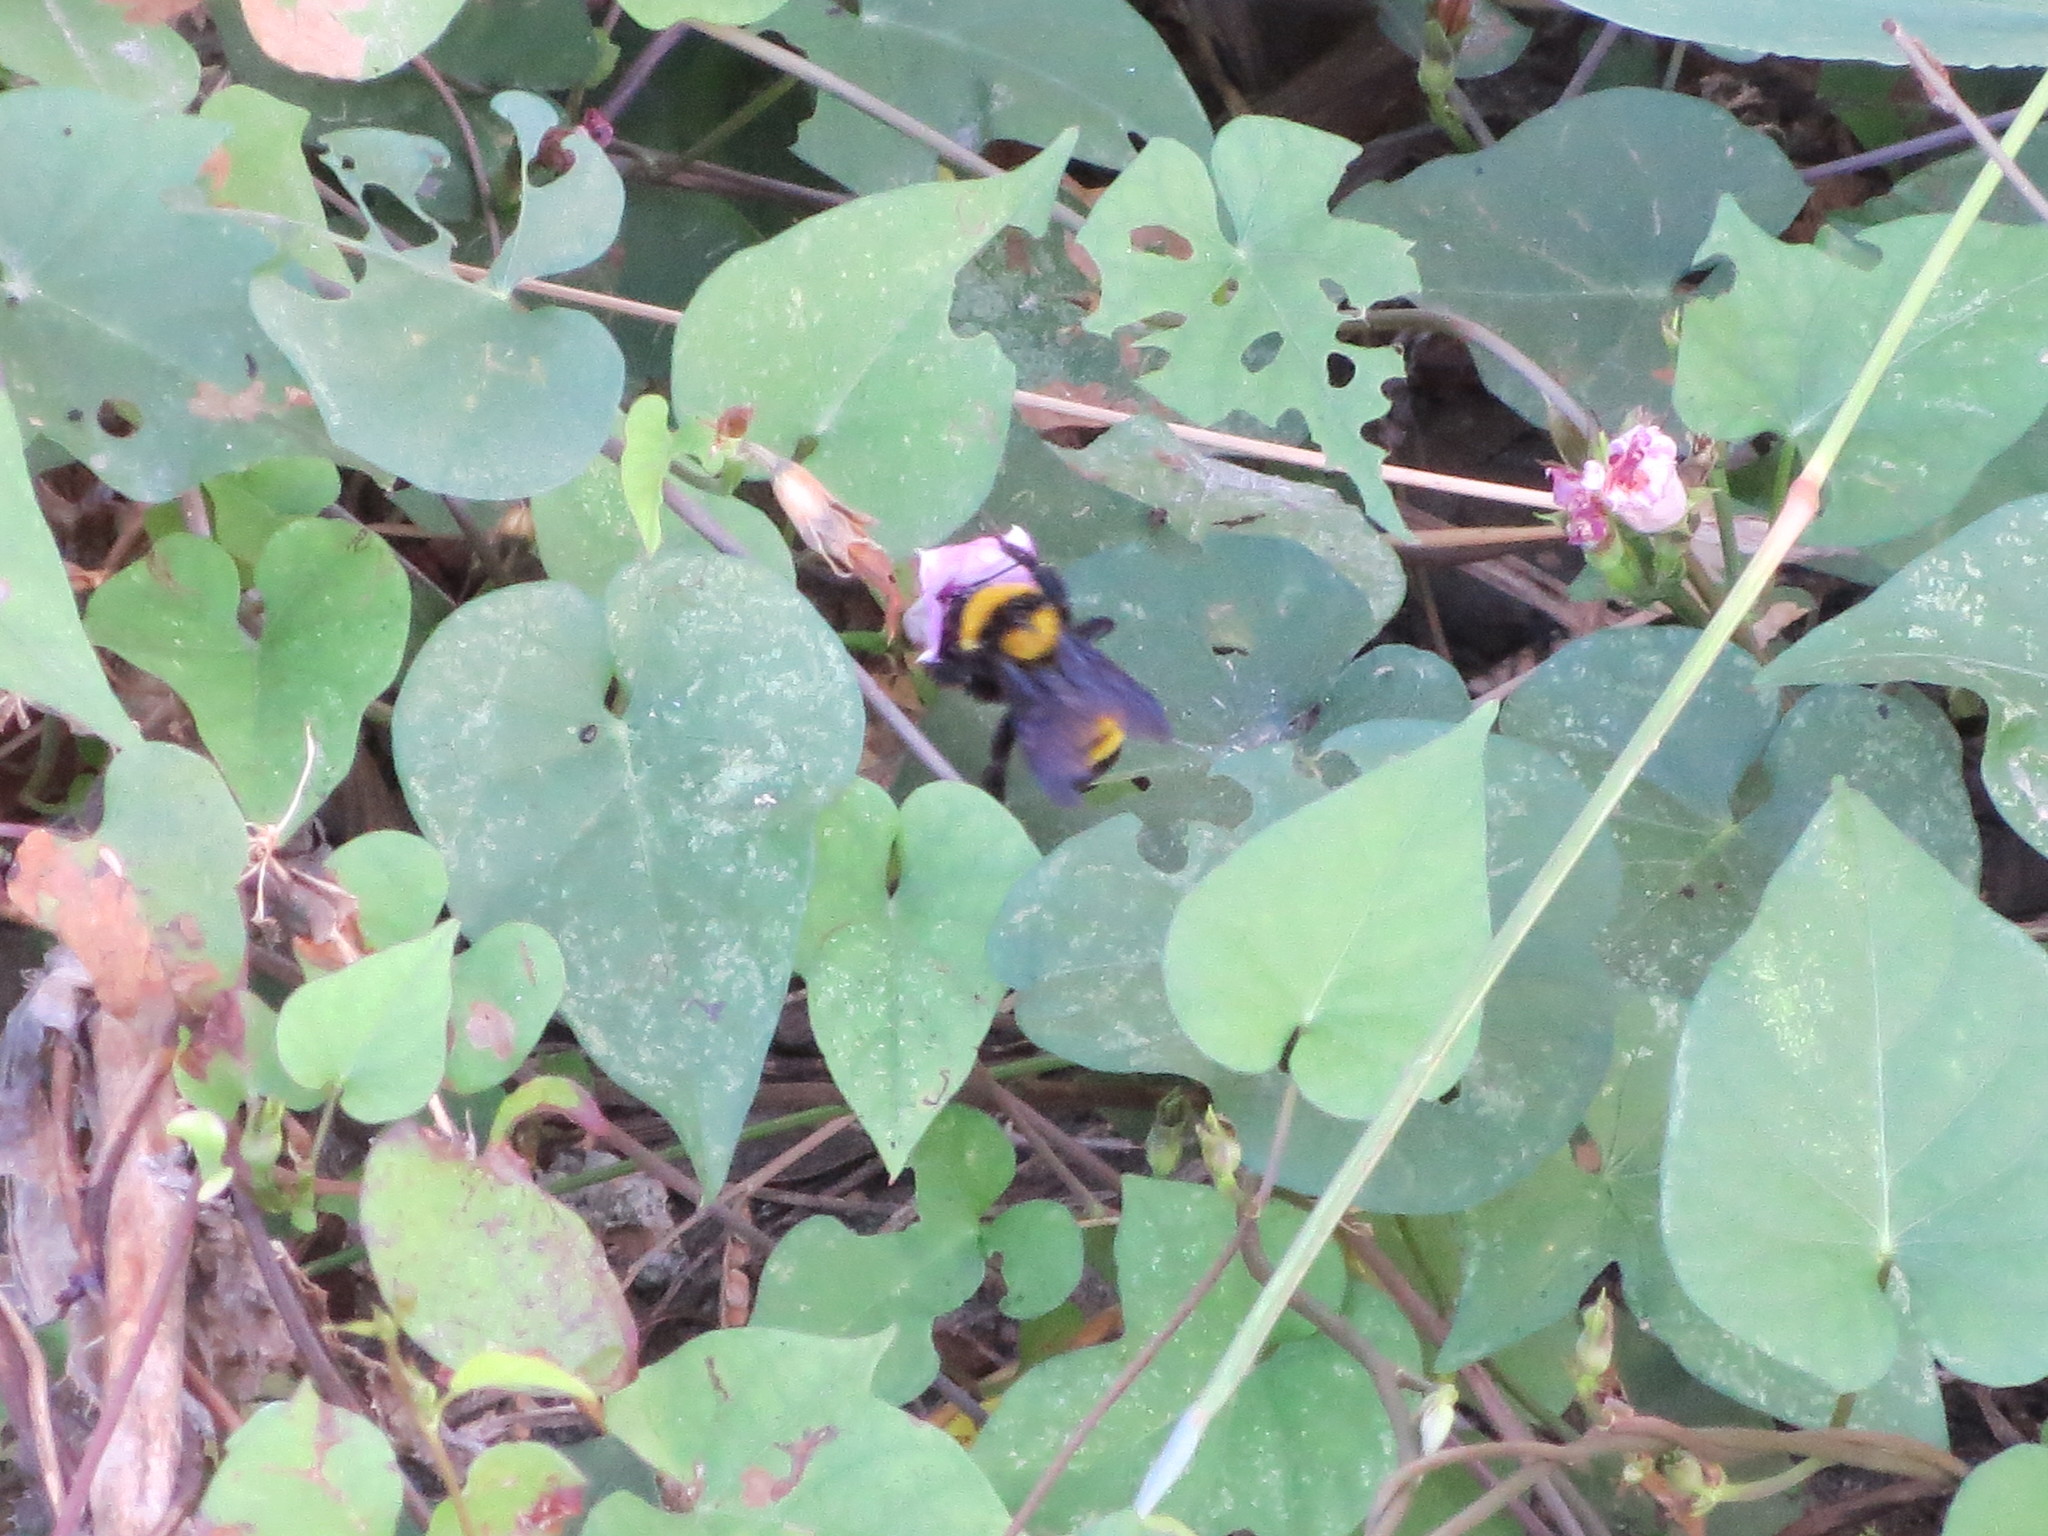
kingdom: Animalia
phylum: Arthropoda
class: Insecta
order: Hymenoptera
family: Apidae
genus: Bombus
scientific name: Bombus sonorus
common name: Sonoran bumble bee
